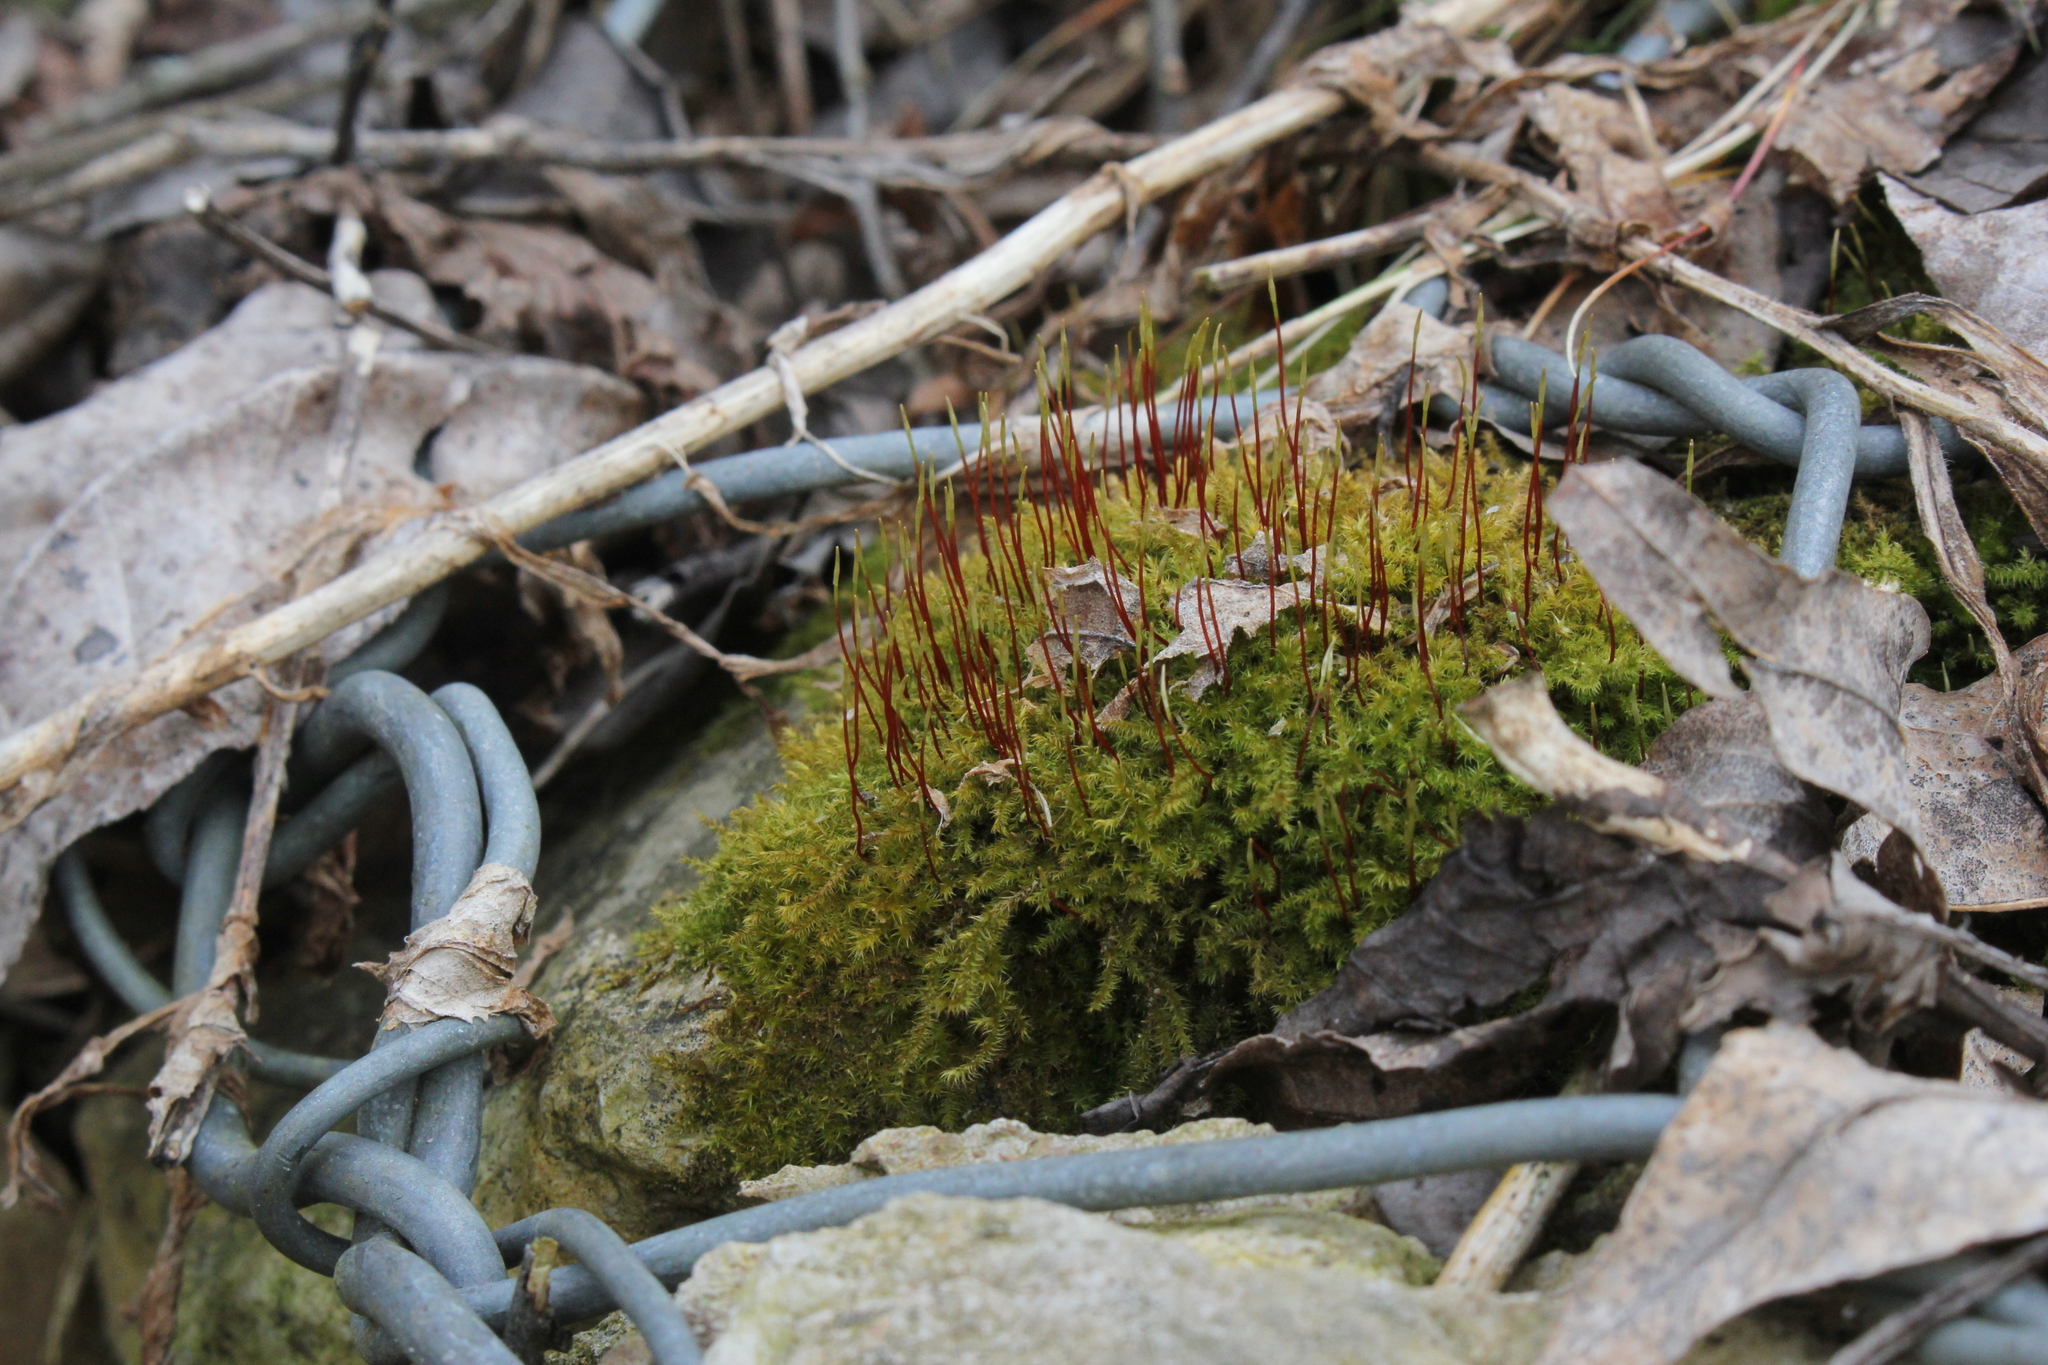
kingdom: Plantae
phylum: Bryophyta
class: Bryopsida
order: Hypnales
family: Amblystegiaceae
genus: Campylium
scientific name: Campylium chrysophyllum
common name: Goldenleaf campylium moss
